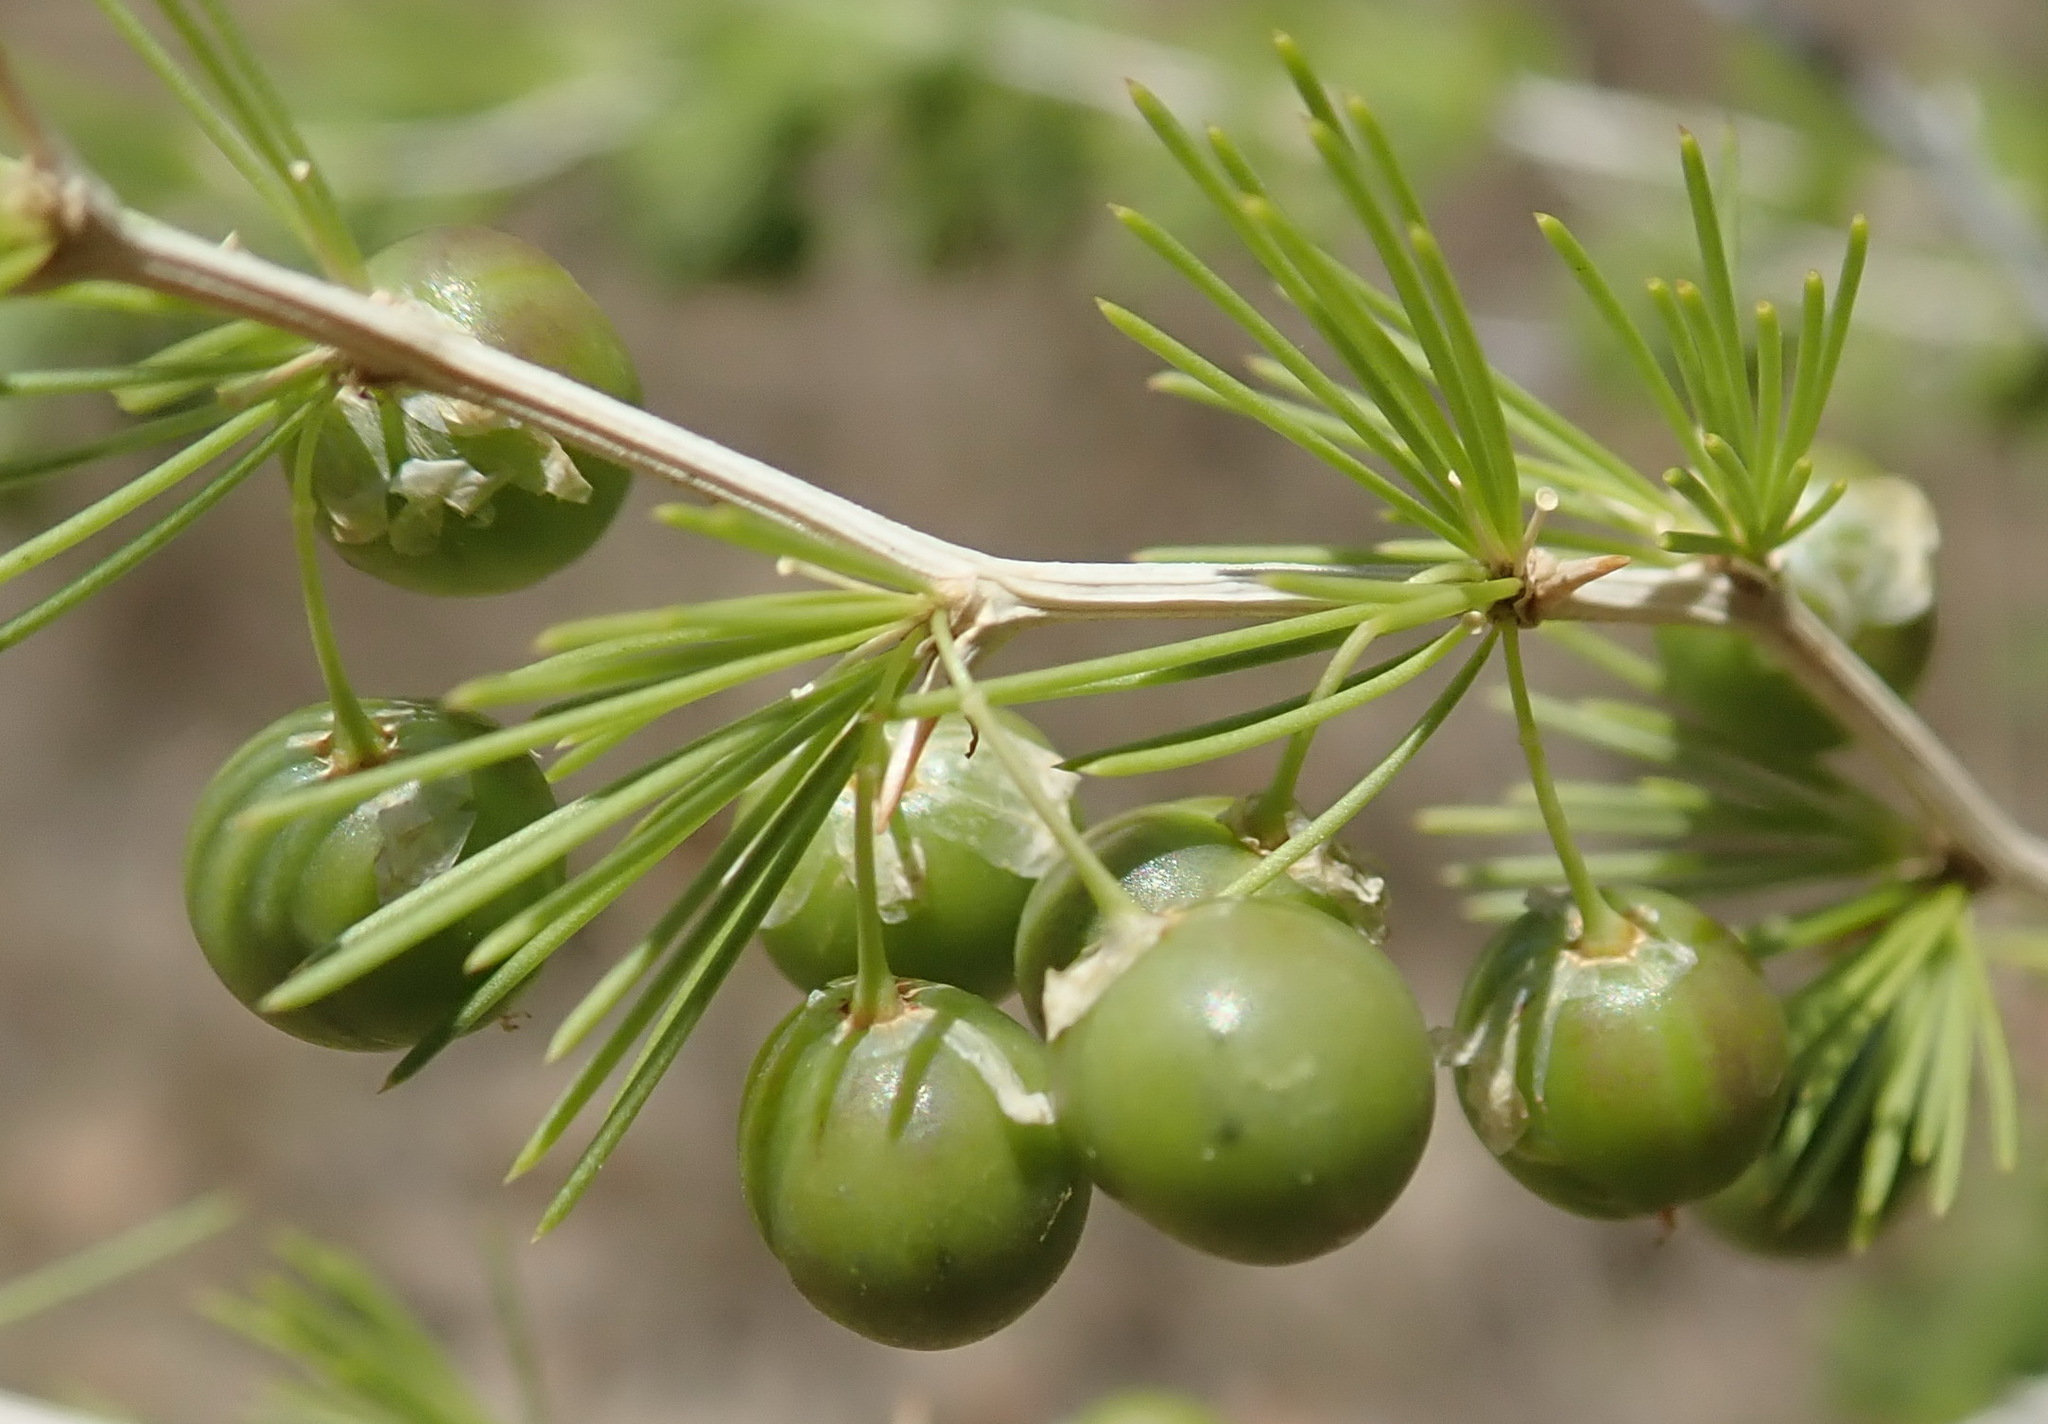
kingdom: Plantae
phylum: Tracheophyta
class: Liliopsida
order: Asparagales
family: Asparagaceae
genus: Asparagus
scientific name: Asparagus laricinus
